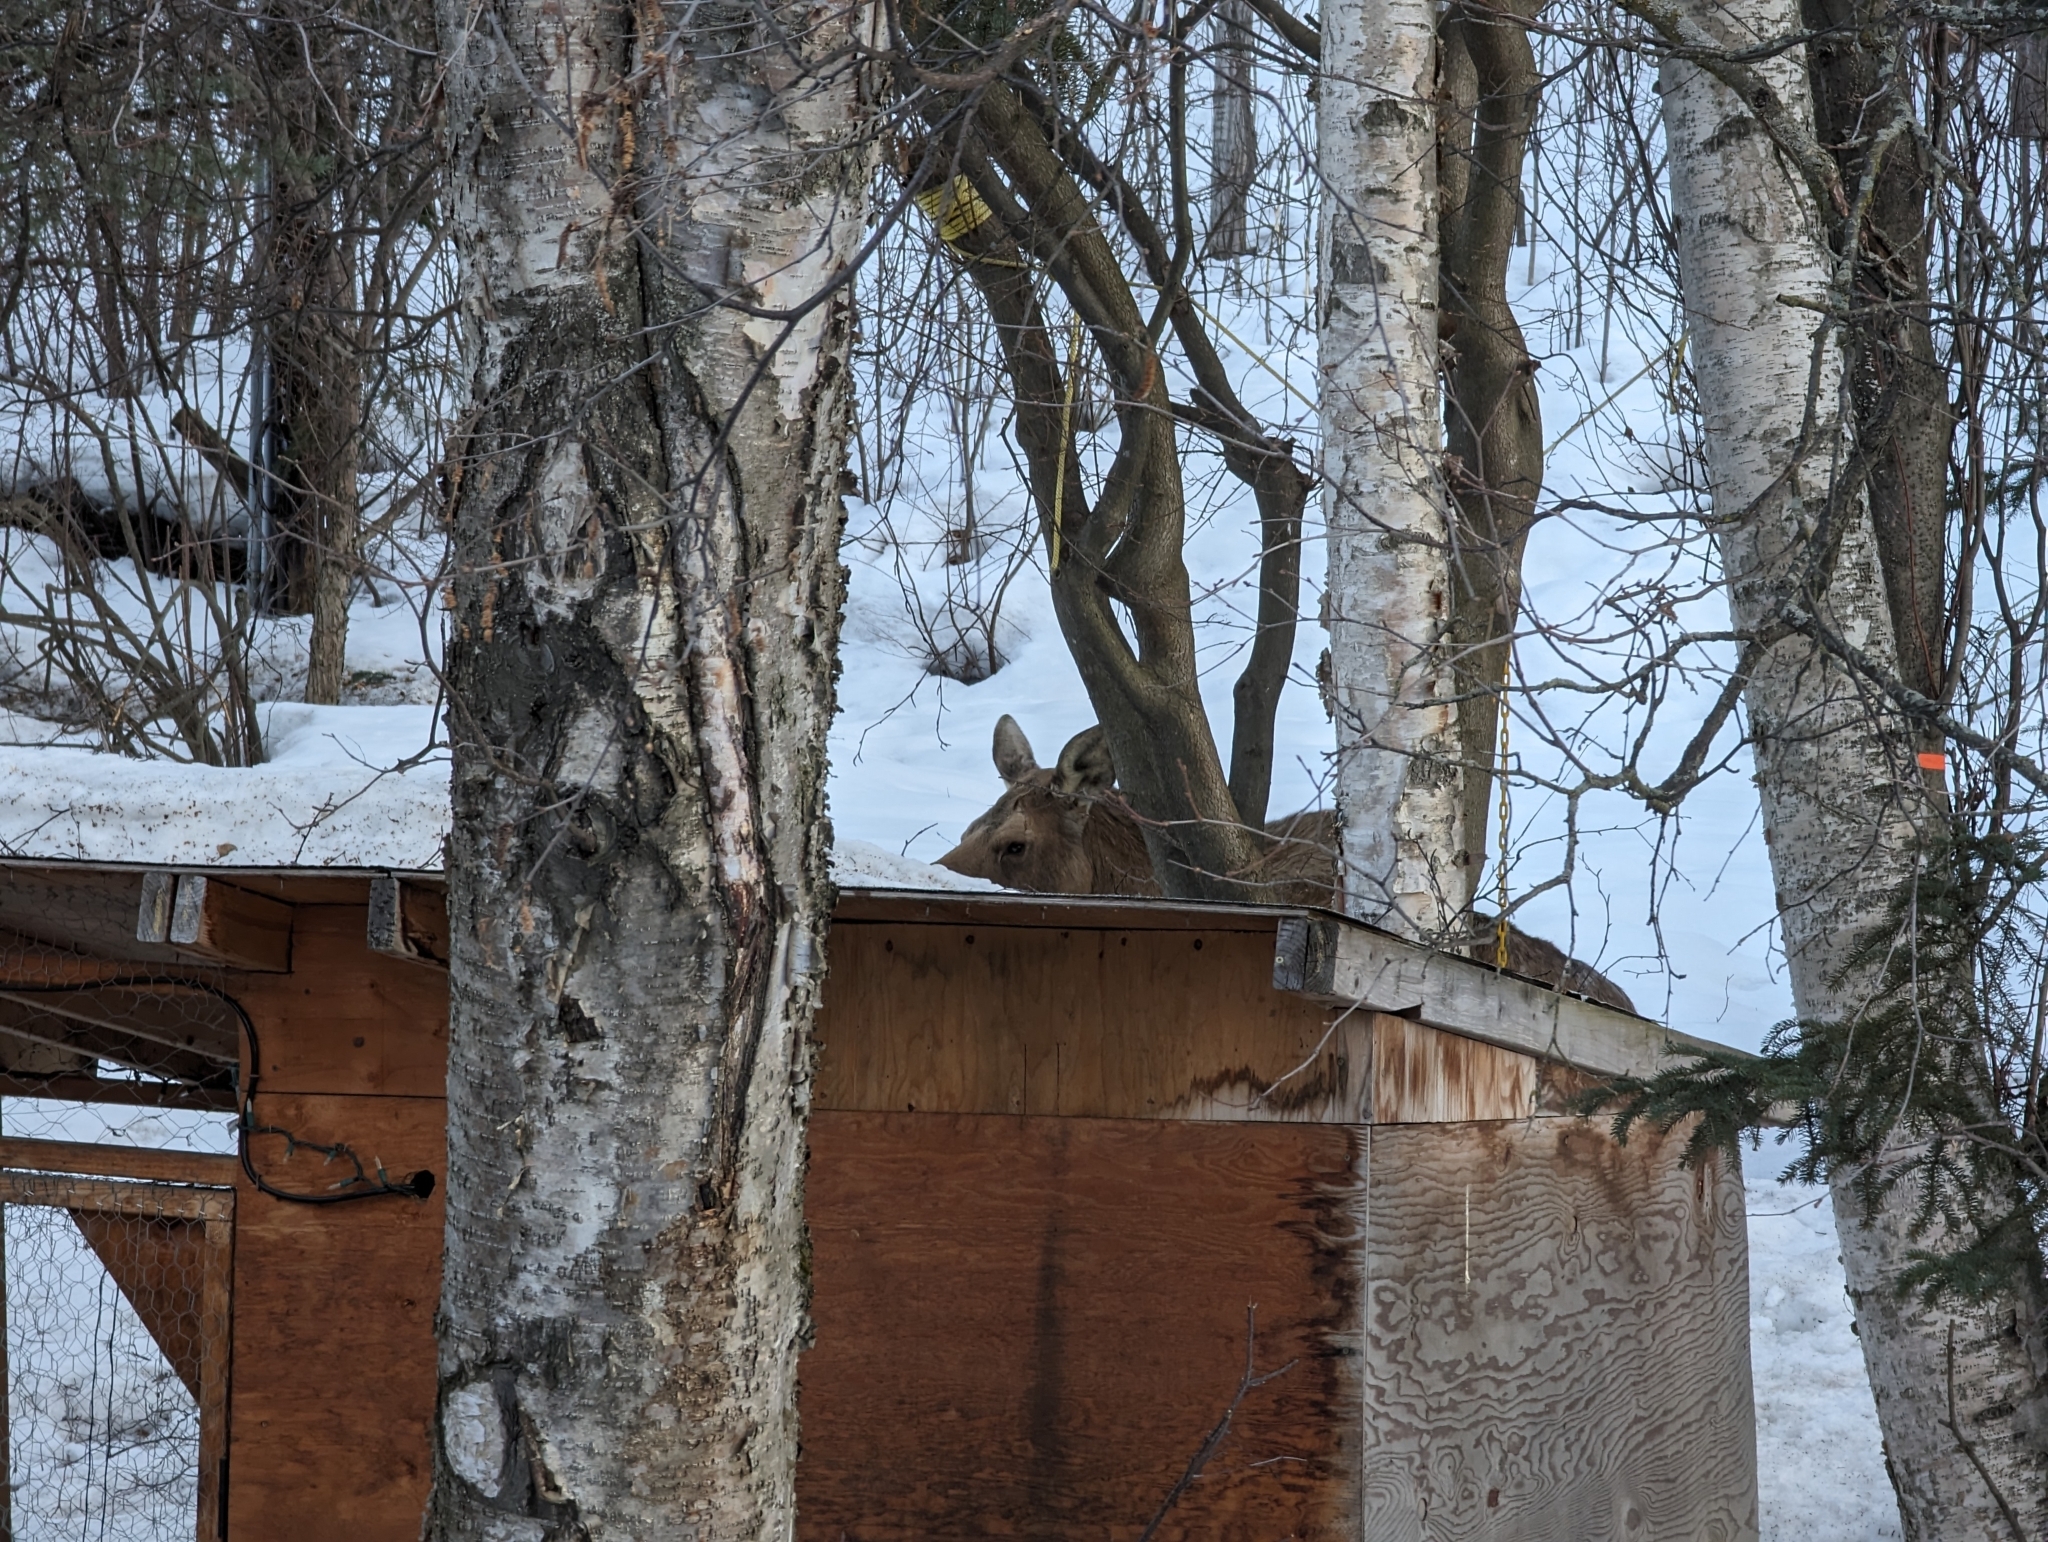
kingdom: Animalia
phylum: Chordata
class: Mammalia
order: Artiodactyla
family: Cervidae
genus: Alces
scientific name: Alces alces
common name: Moose
